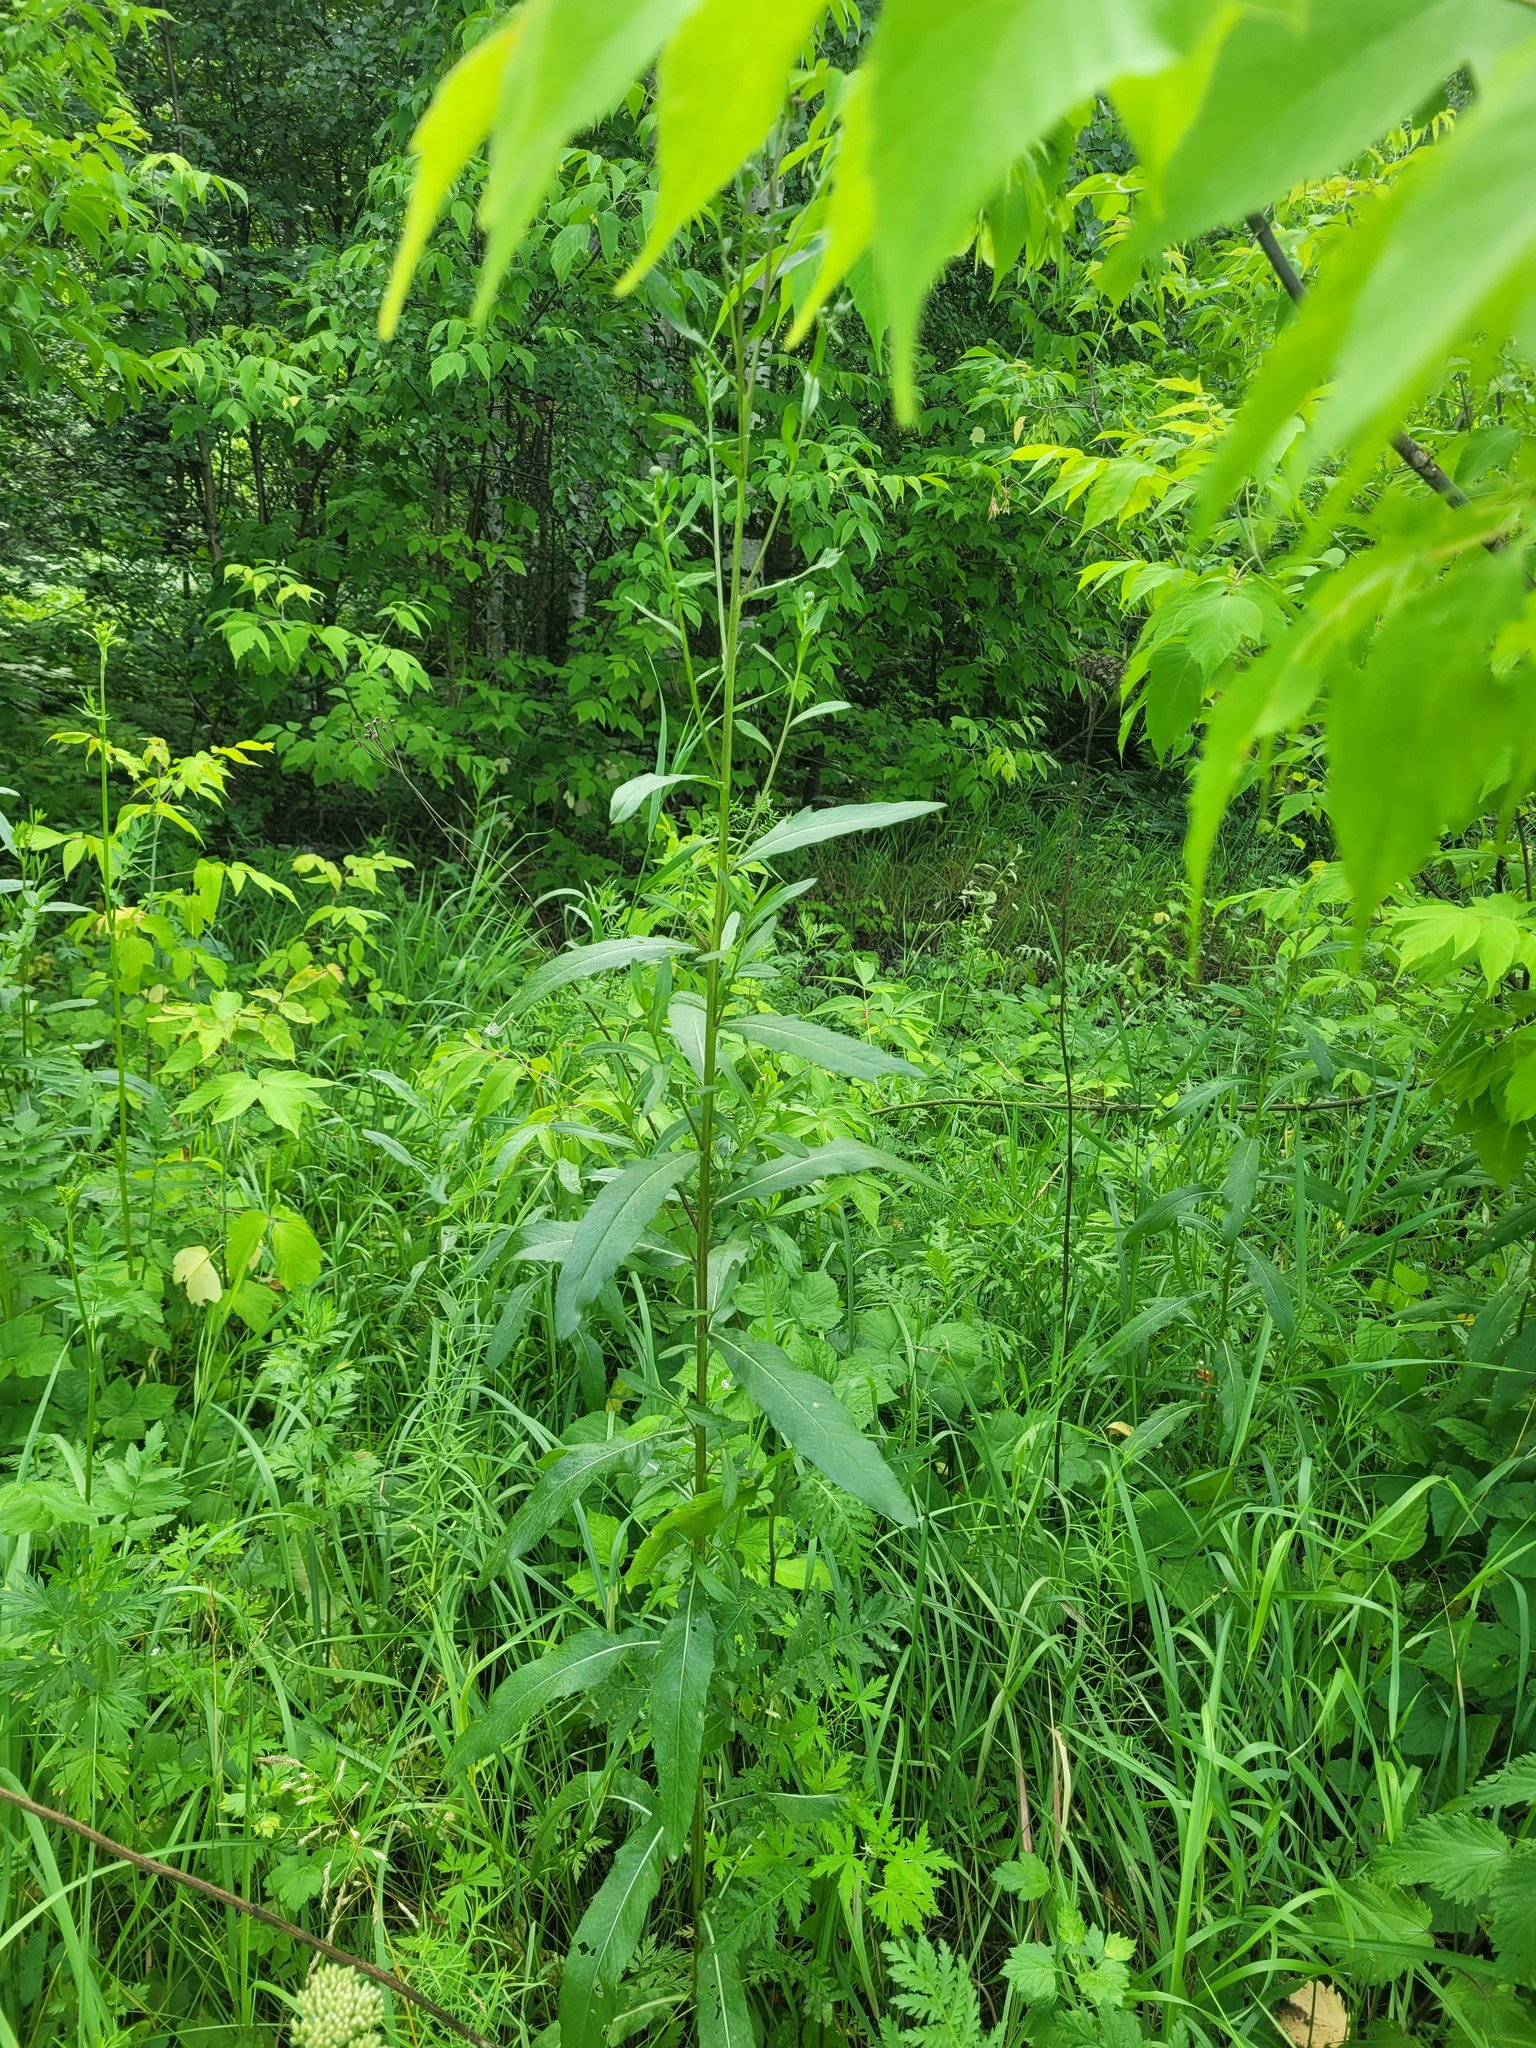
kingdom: Plantae
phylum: Tracheophyta
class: Magnoliopsida
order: Asterales
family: Asteraceae
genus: Cirsium
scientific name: Cirsium arvense
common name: Creeping thistle
